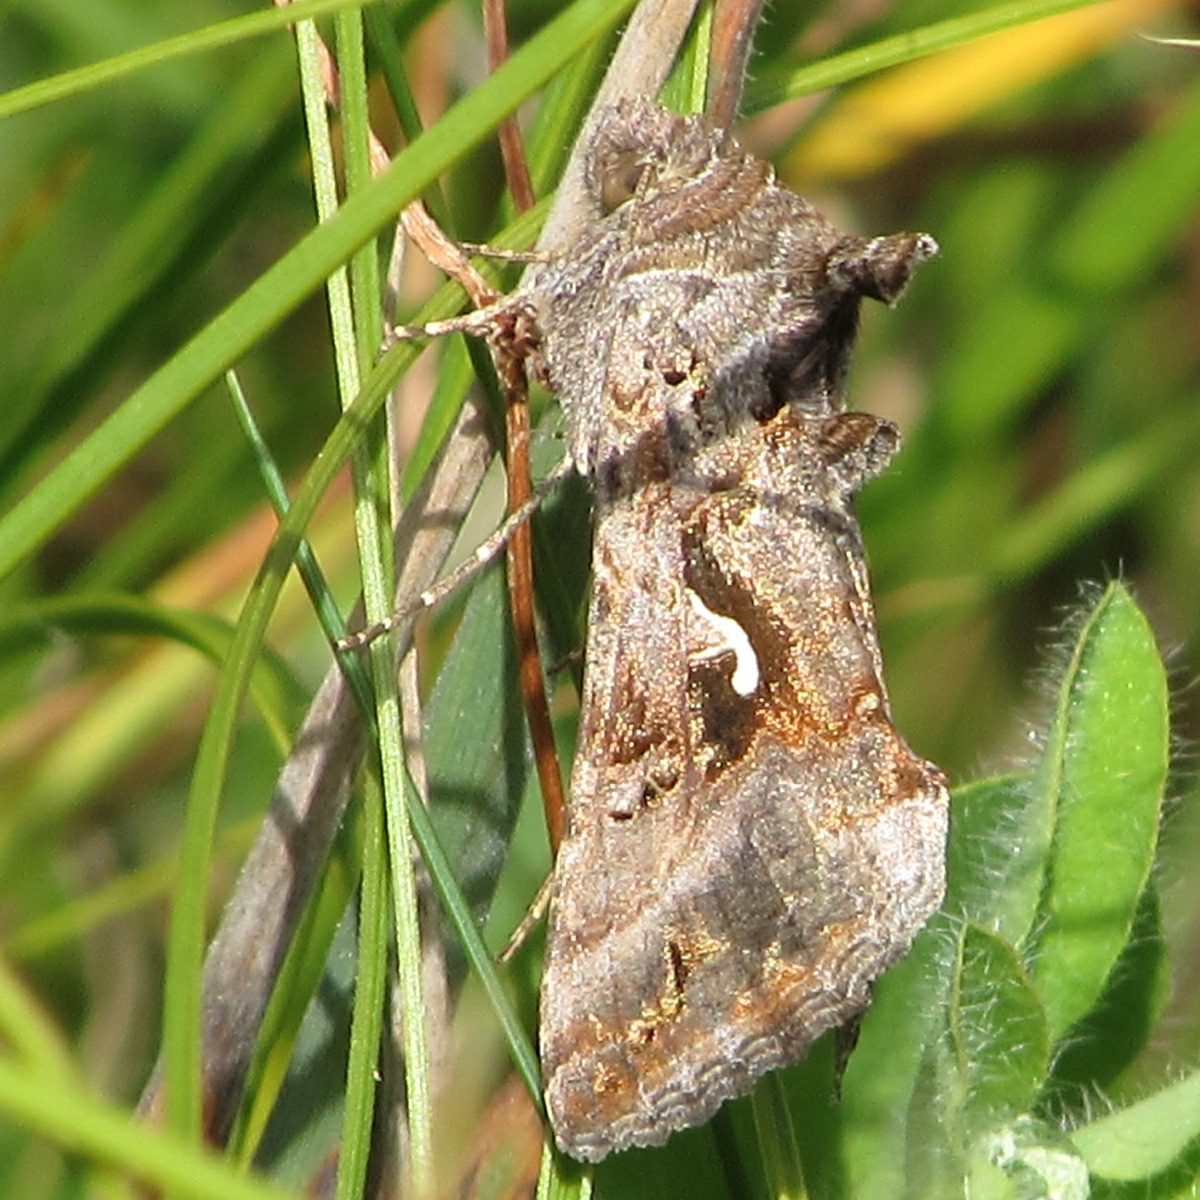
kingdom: Animalia
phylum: Arthropoda
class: Insecta
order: Lepidoptera
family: Noctuidae
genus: Autographa
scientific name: Autographa gamma
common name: Silver y
